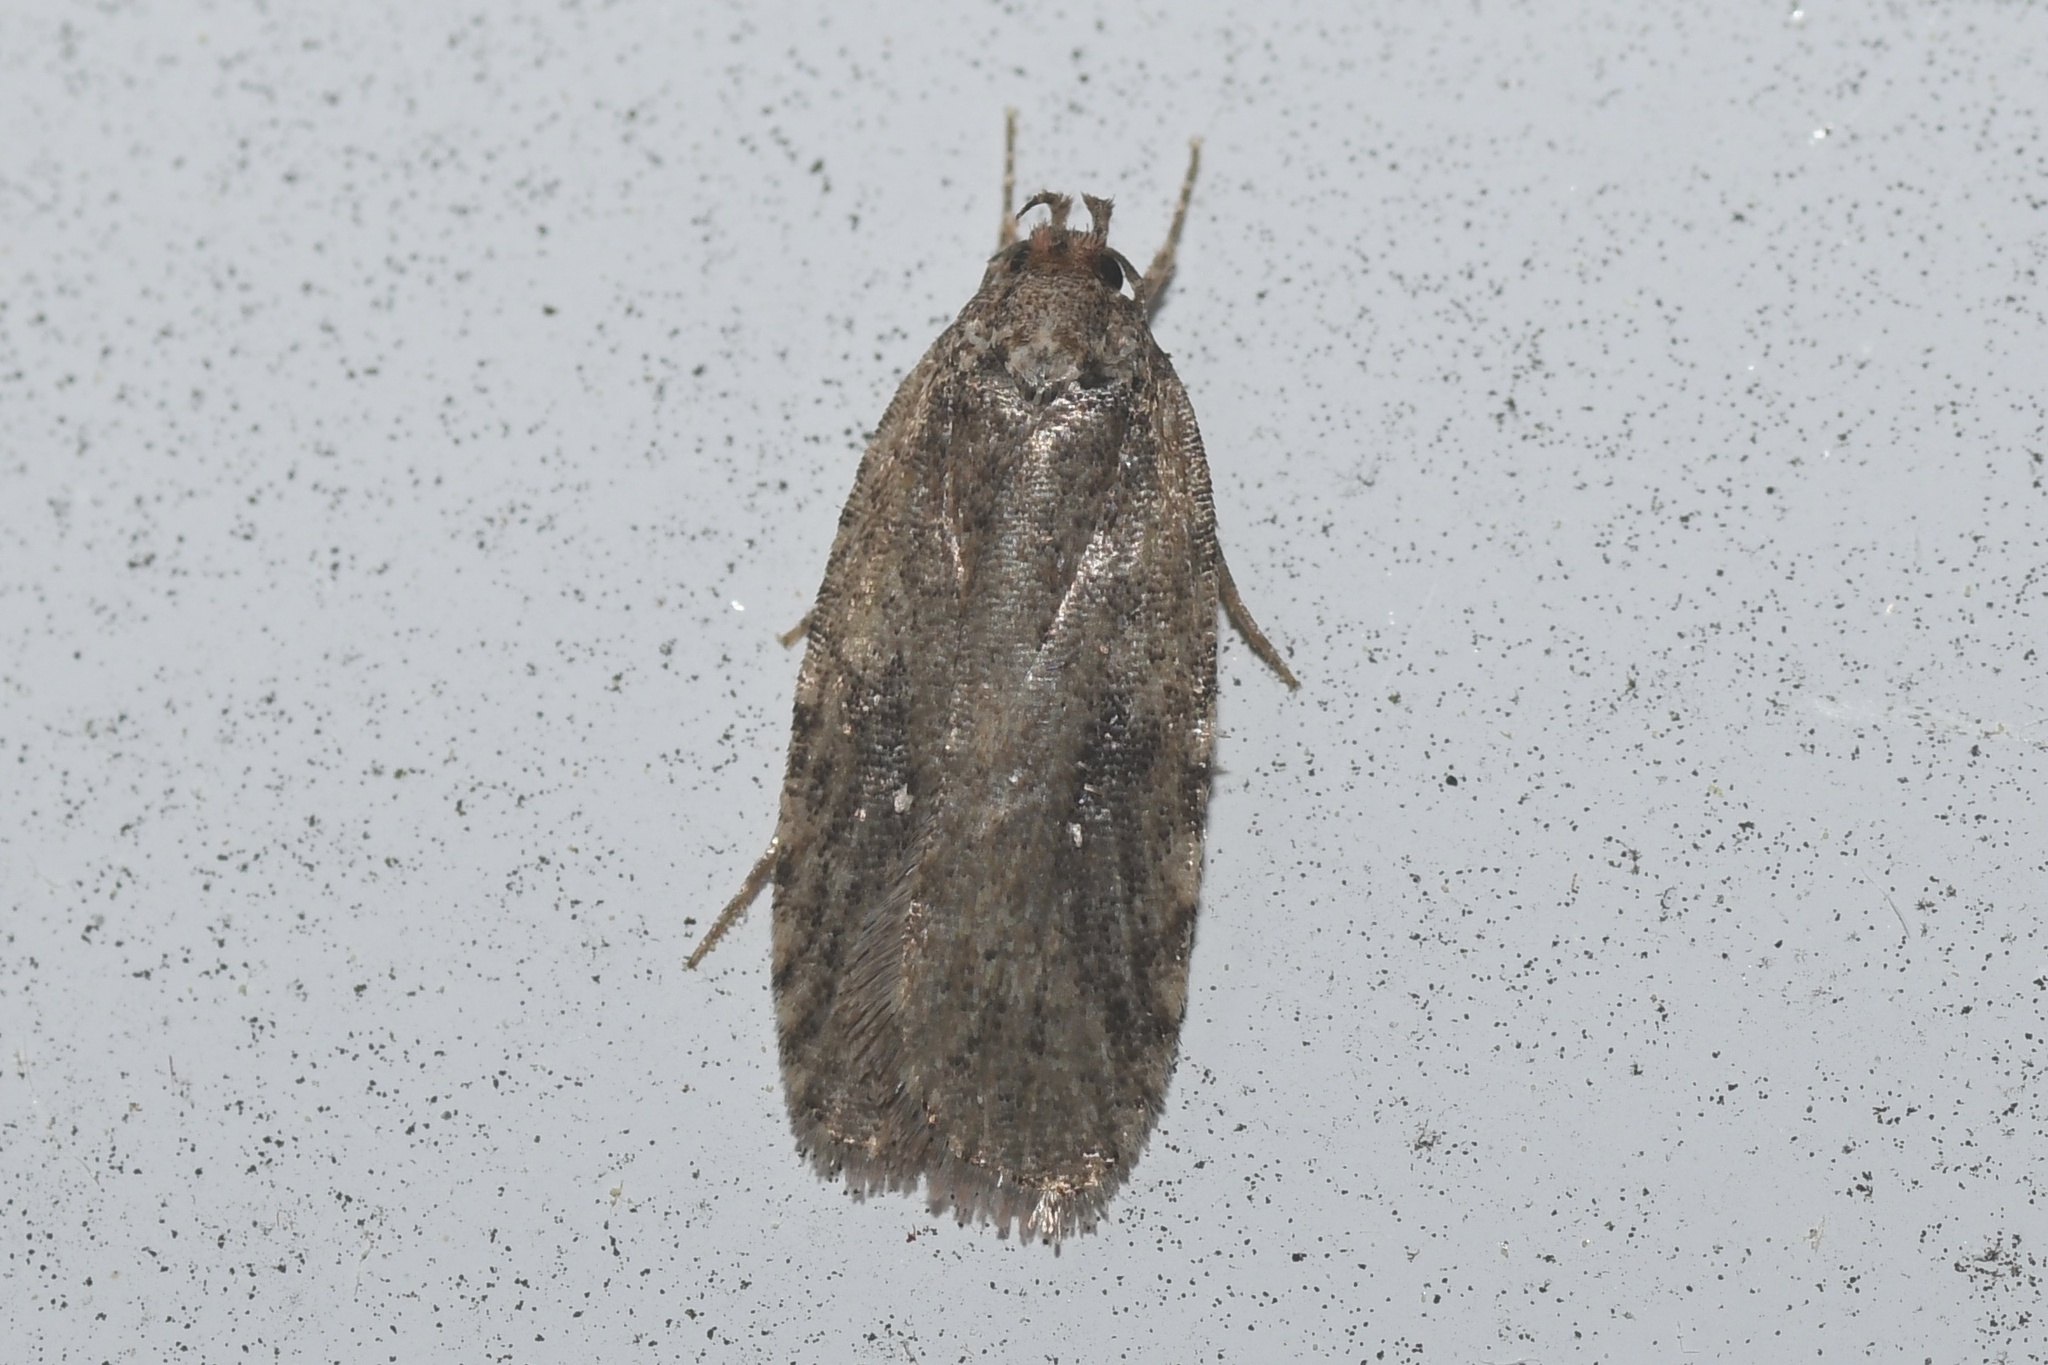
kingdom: Animalia
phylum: Arthropoda
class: Insecta
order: Lepidoptera
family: Depressariidae
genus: Agonopterix
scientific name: Agonopterix clemensella
